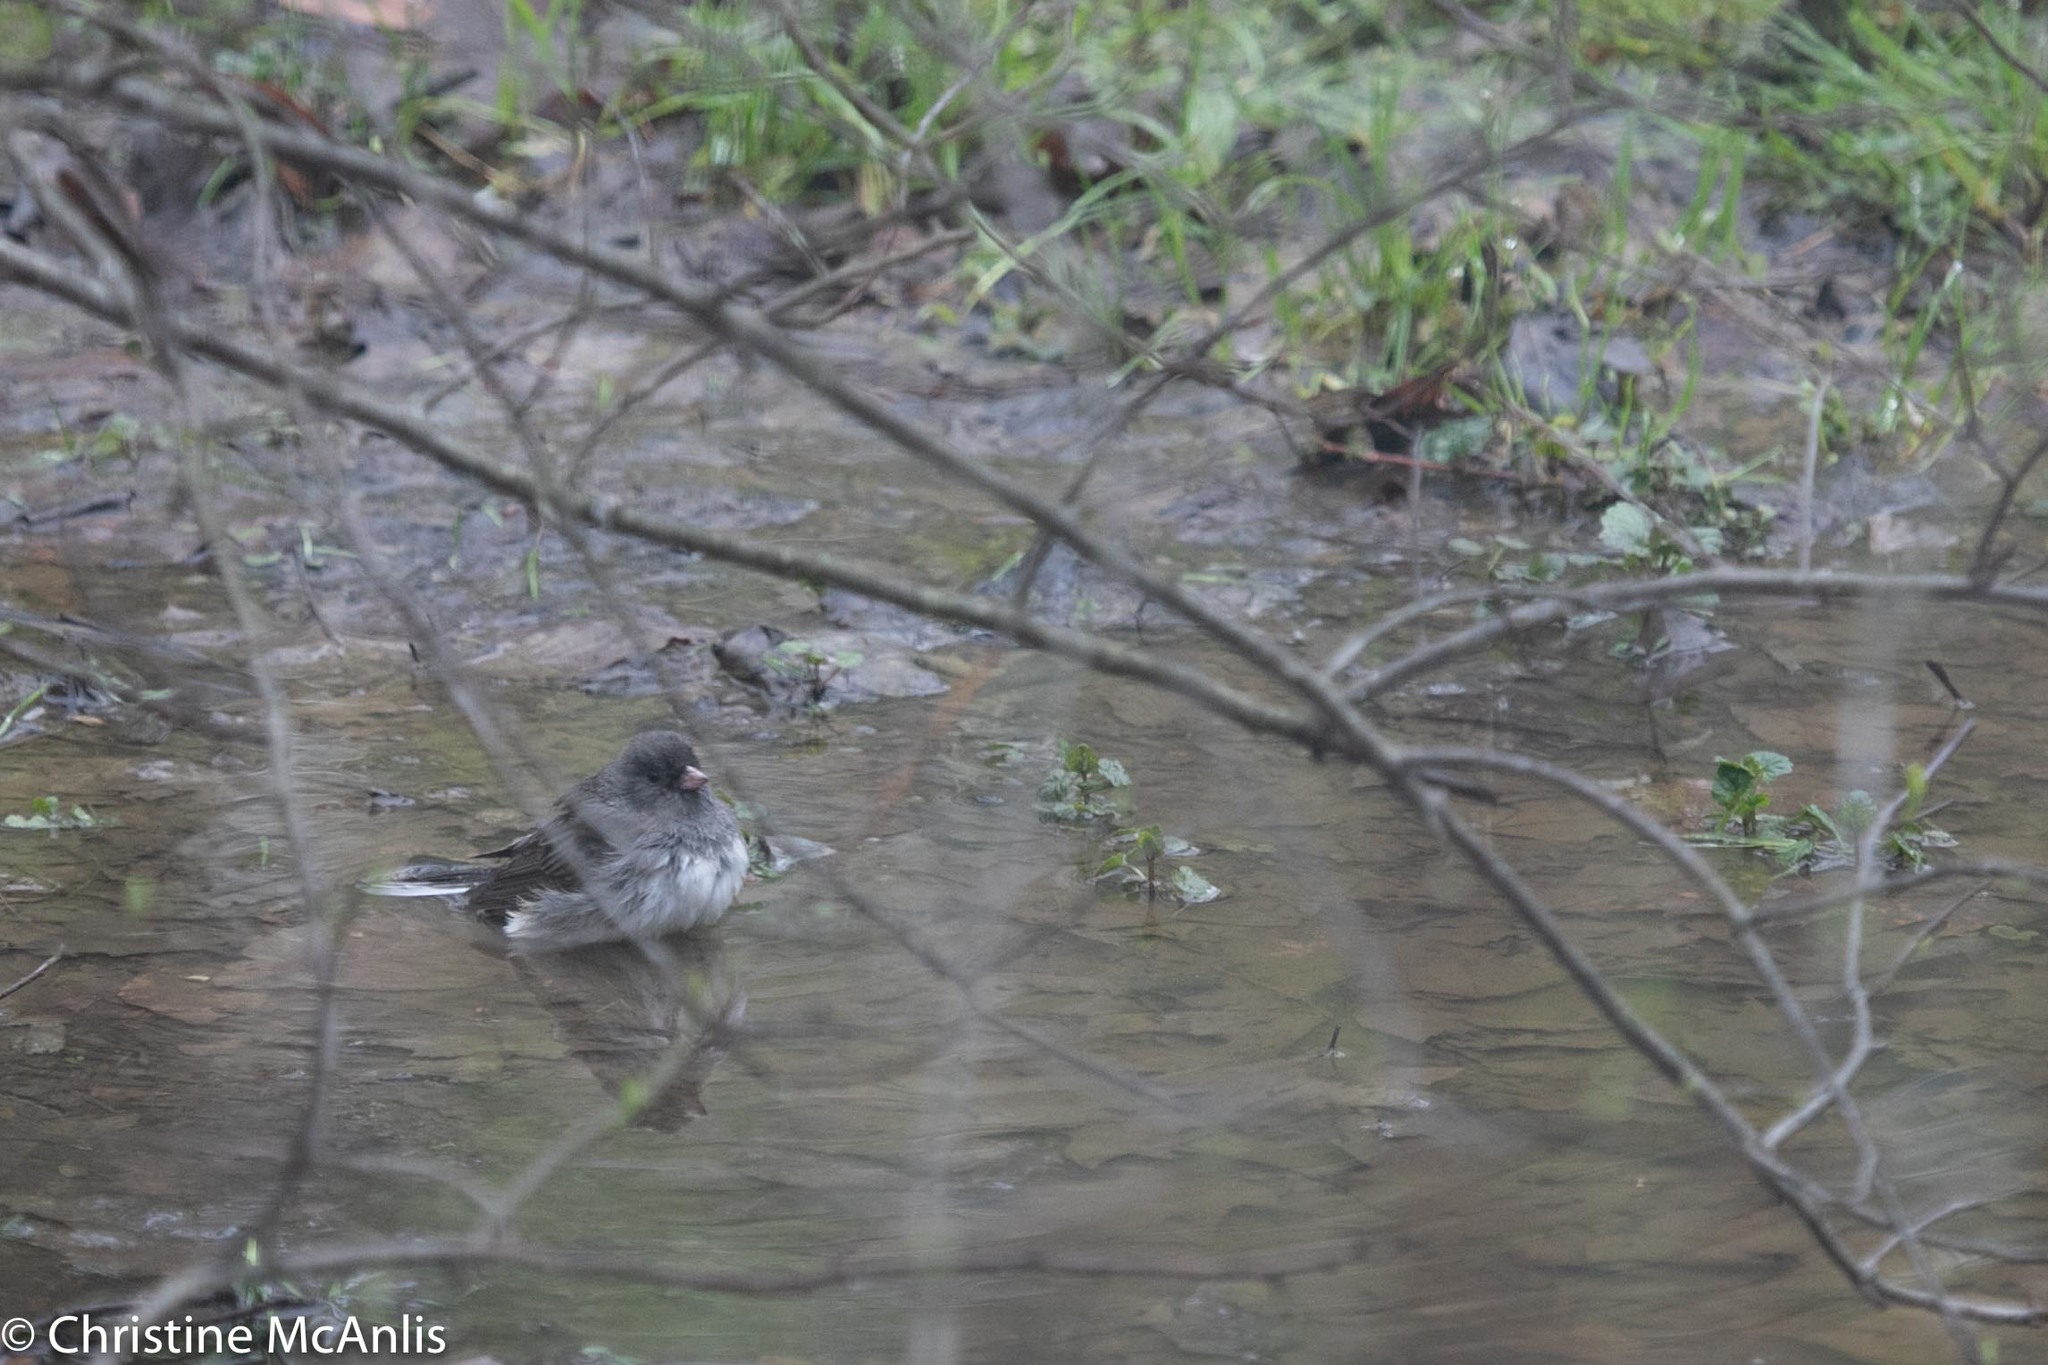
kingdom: Animalia
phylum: Chordata
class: Aves
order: Passeriformes
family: Passerellidae
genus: Junco
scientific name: Junco hyemalis
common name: Dark-eyed junco
